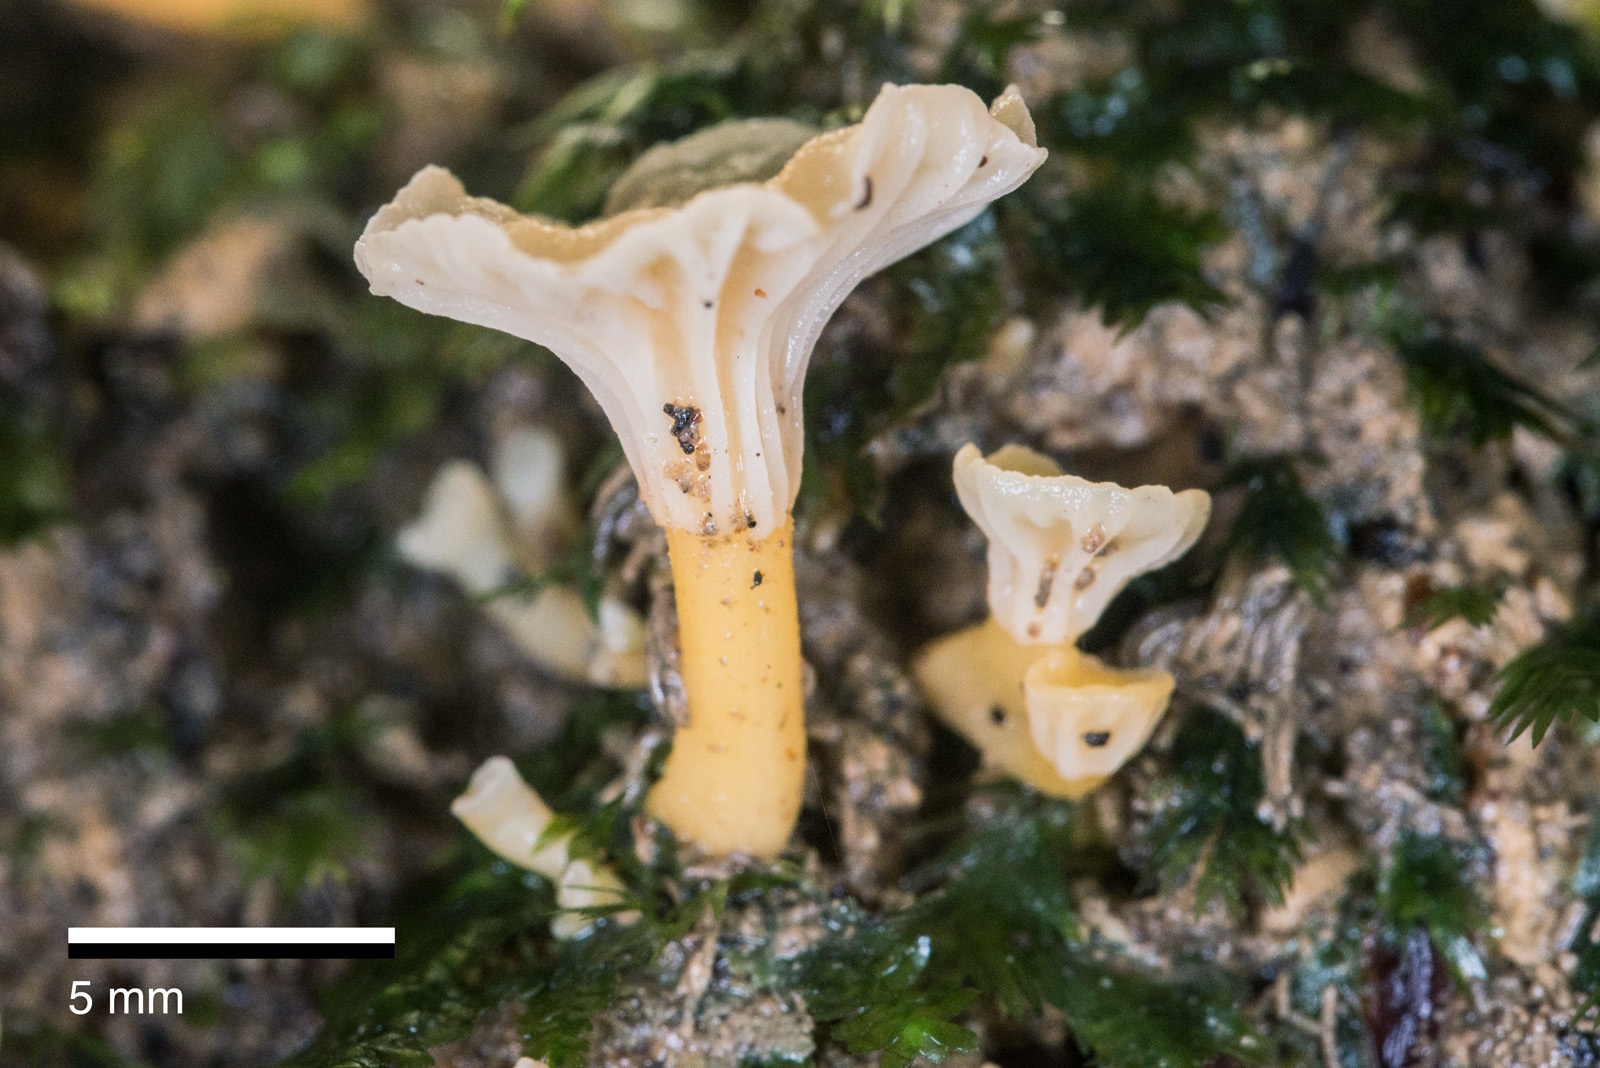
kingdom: Fungi
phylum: Basidiomycota
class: Agaricomycetes
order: Cantharellales
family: Hydnaceae
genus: Cantharellus
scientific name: Cantharellus wellingtonensis
